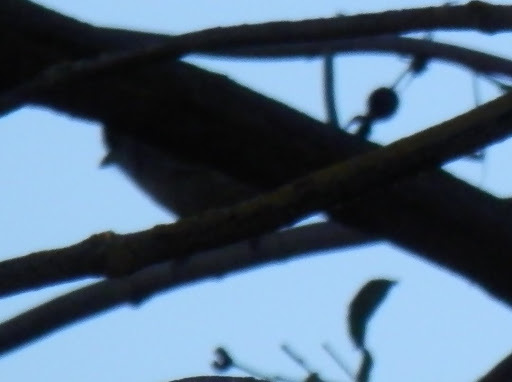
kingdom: Animalia
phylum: Chordata
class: Aves
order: Passeriformes
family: Paridae
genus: Baeolophus
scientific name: Baeolophus inornatus
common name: Oak titmouse
